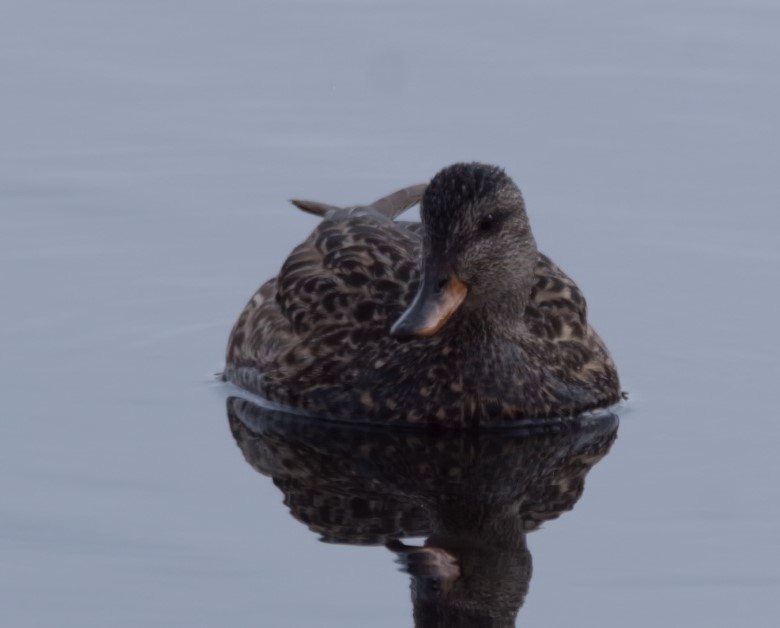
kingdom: Animalia
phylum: Chordata
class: Aves
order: Anseriformes
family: Anatidae
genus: Mareca
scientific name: Mareca strepera
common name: Gadwall
